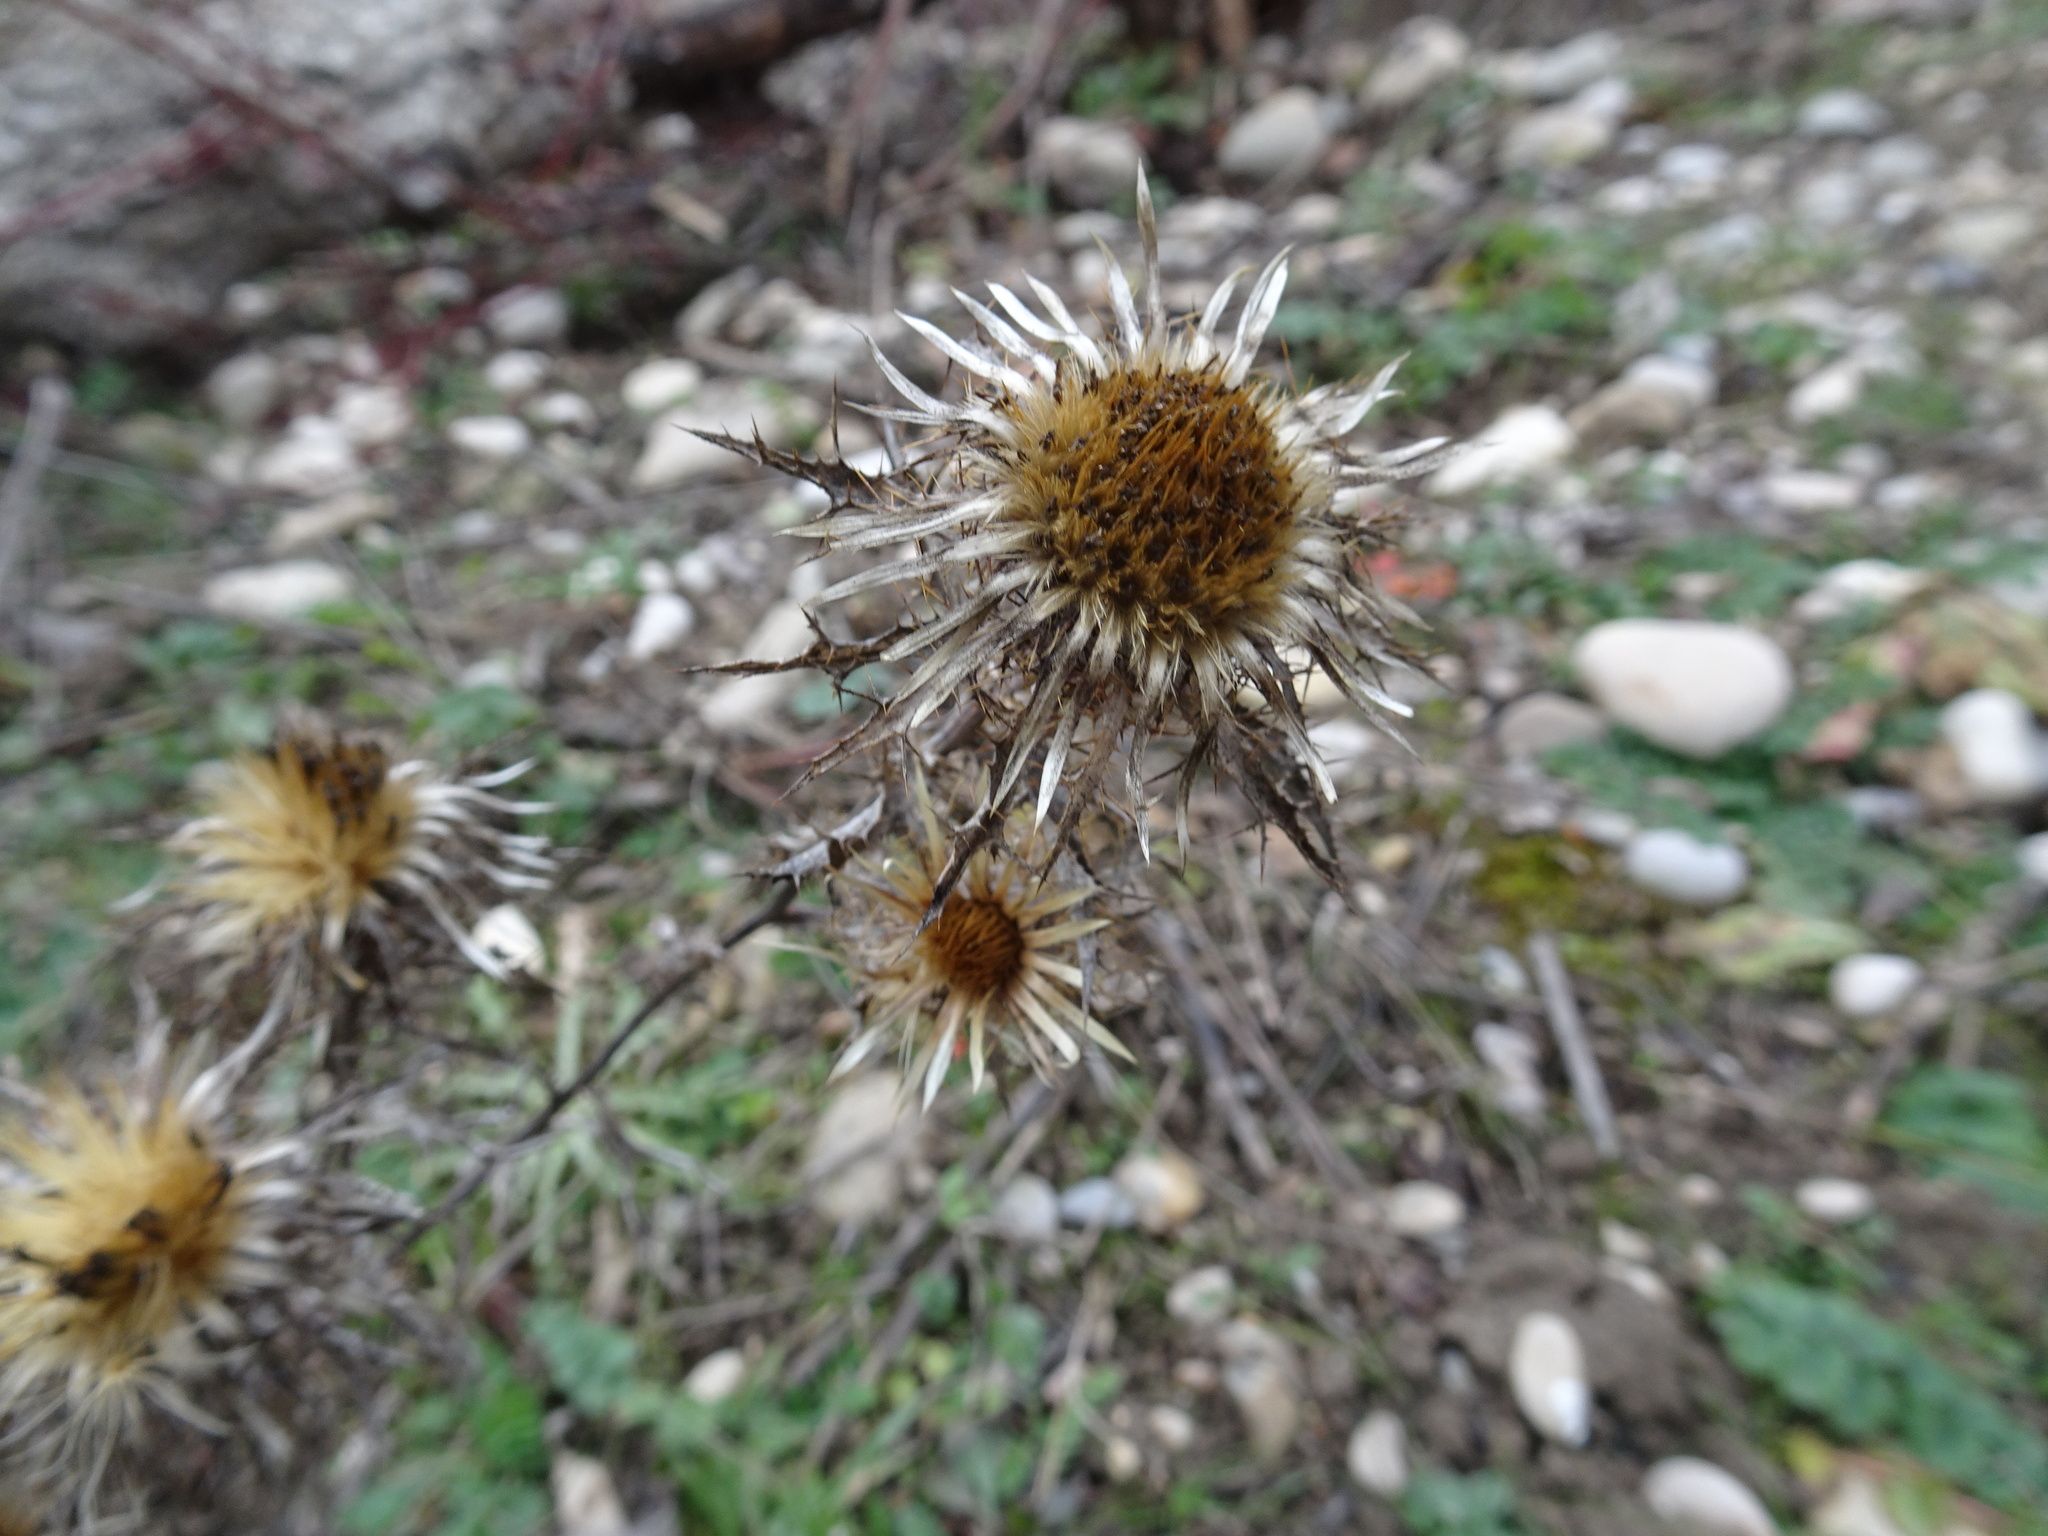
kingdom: Plantae
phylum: Tracheophyta
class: Magnoliopsida
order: Asterales
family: Asteraceae
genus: Carlina
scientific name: Carlina vulgaris
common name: Carline thistle
